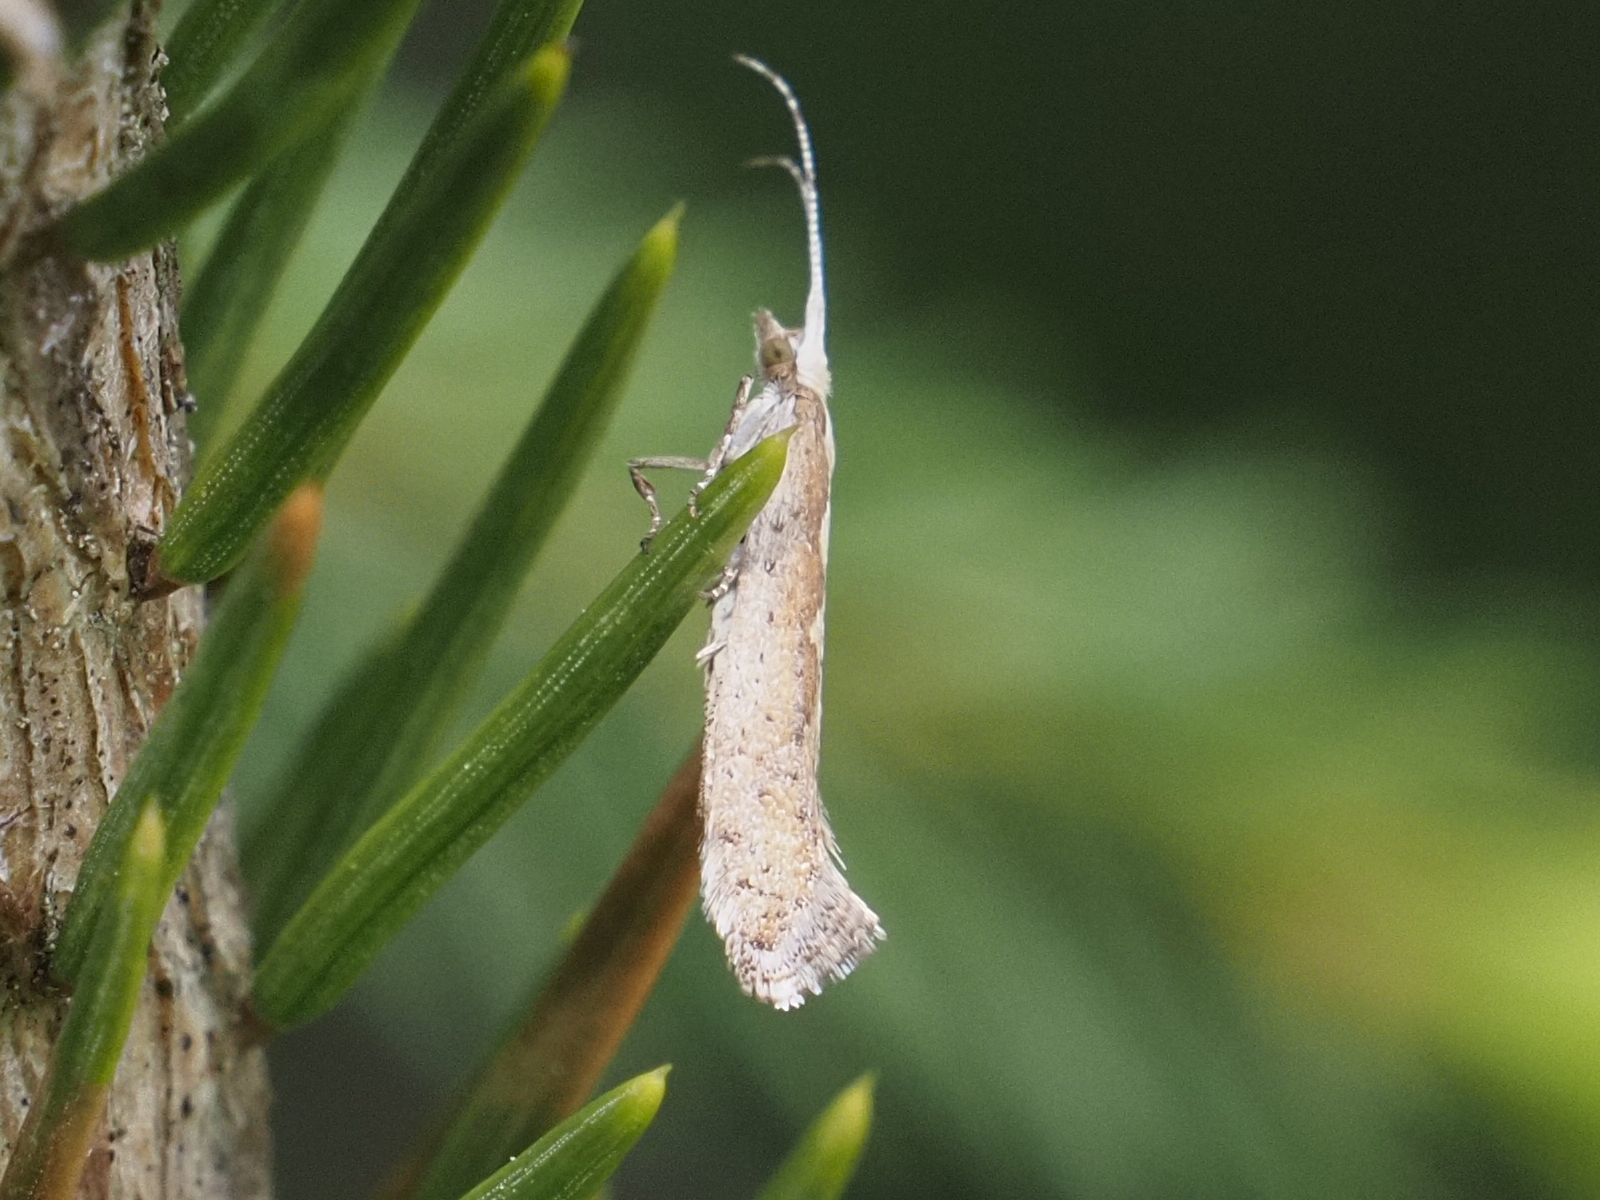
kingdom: Animalia
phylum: Arthropoda
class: Insecta
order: Lepidoptera
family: Plutellidae
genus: Plutella
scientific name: Plutella xylostella
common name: Diamond-back moth
